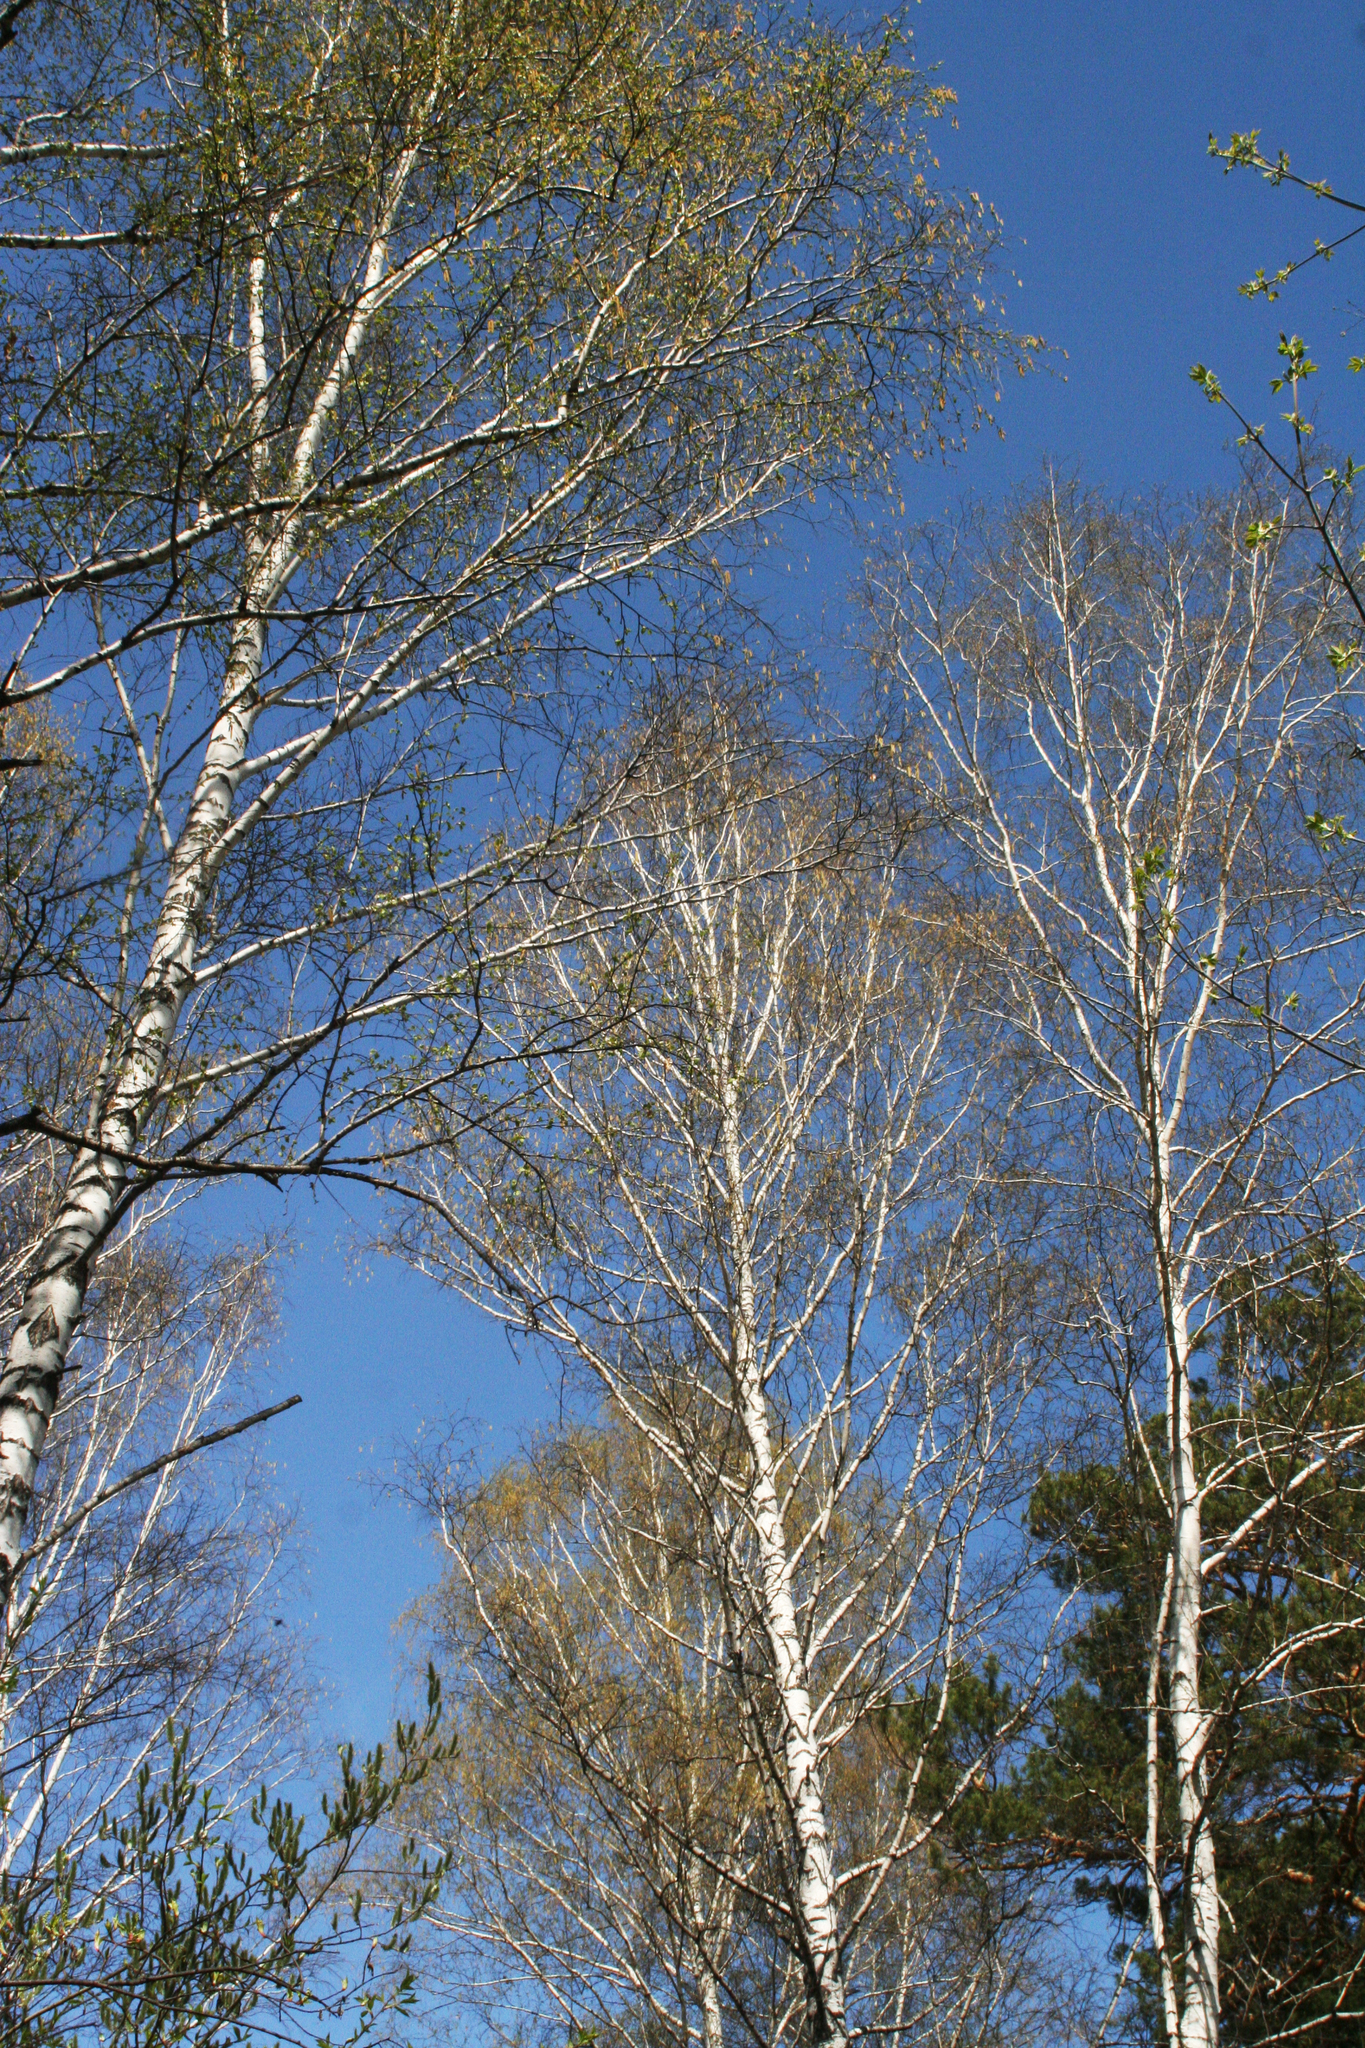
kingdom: Plantae
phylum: Tracheophyta
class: Magnoliopsida
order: Fagales
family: Betulaceae
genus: Betula
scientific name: Betula pendula
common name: Silver birch
